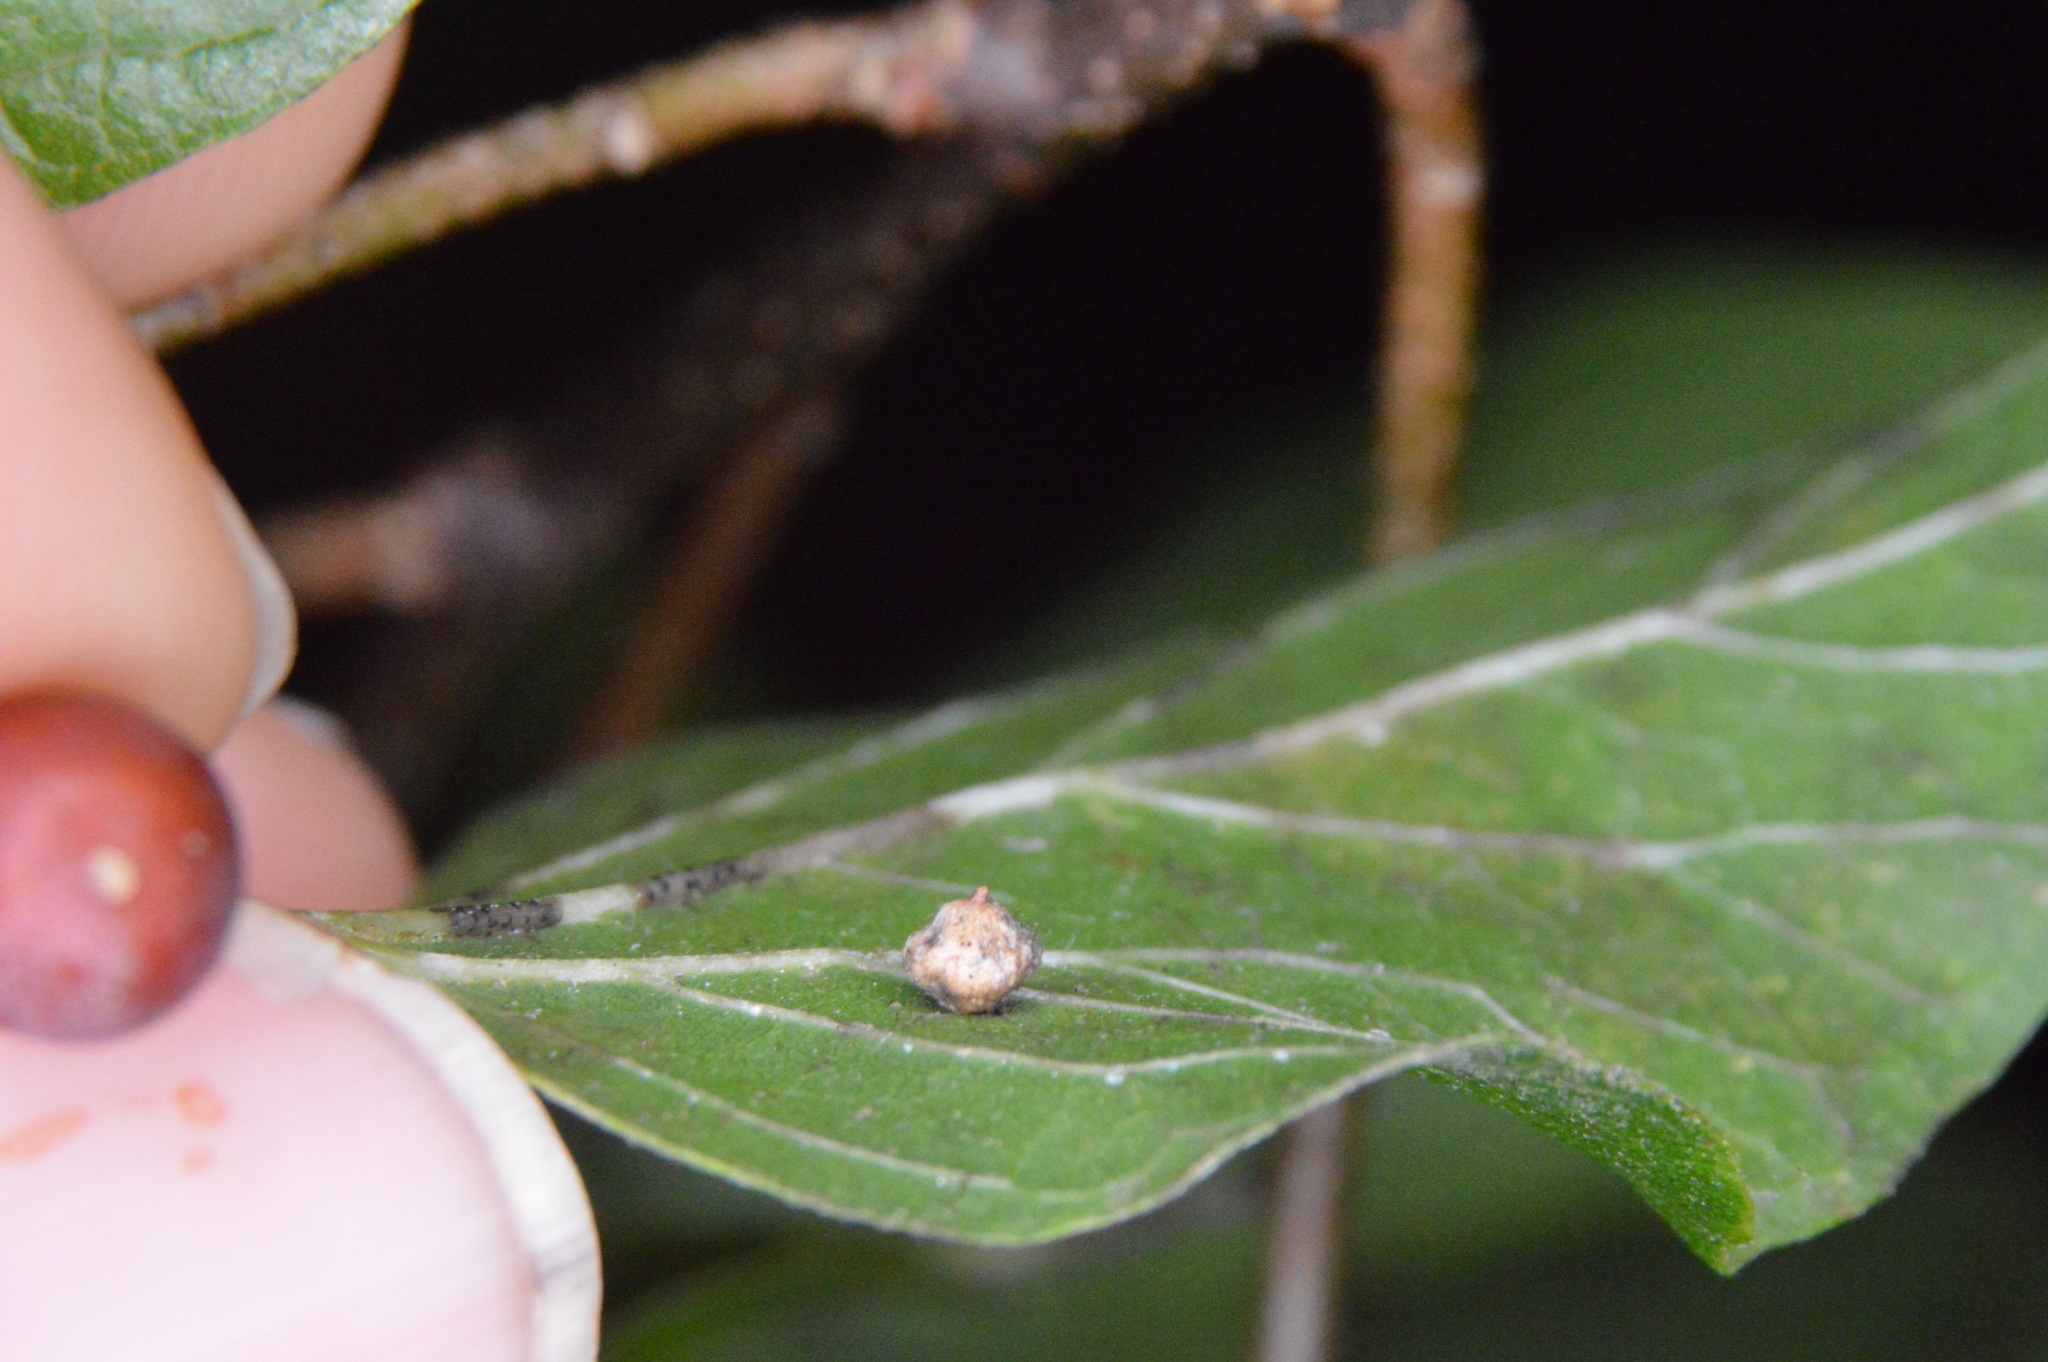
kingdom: Animalia
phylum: Arthropoda
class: Insecta
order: Diptera
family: Cecidomyiidae
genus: Celticecis
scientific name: Celticecis globosa
